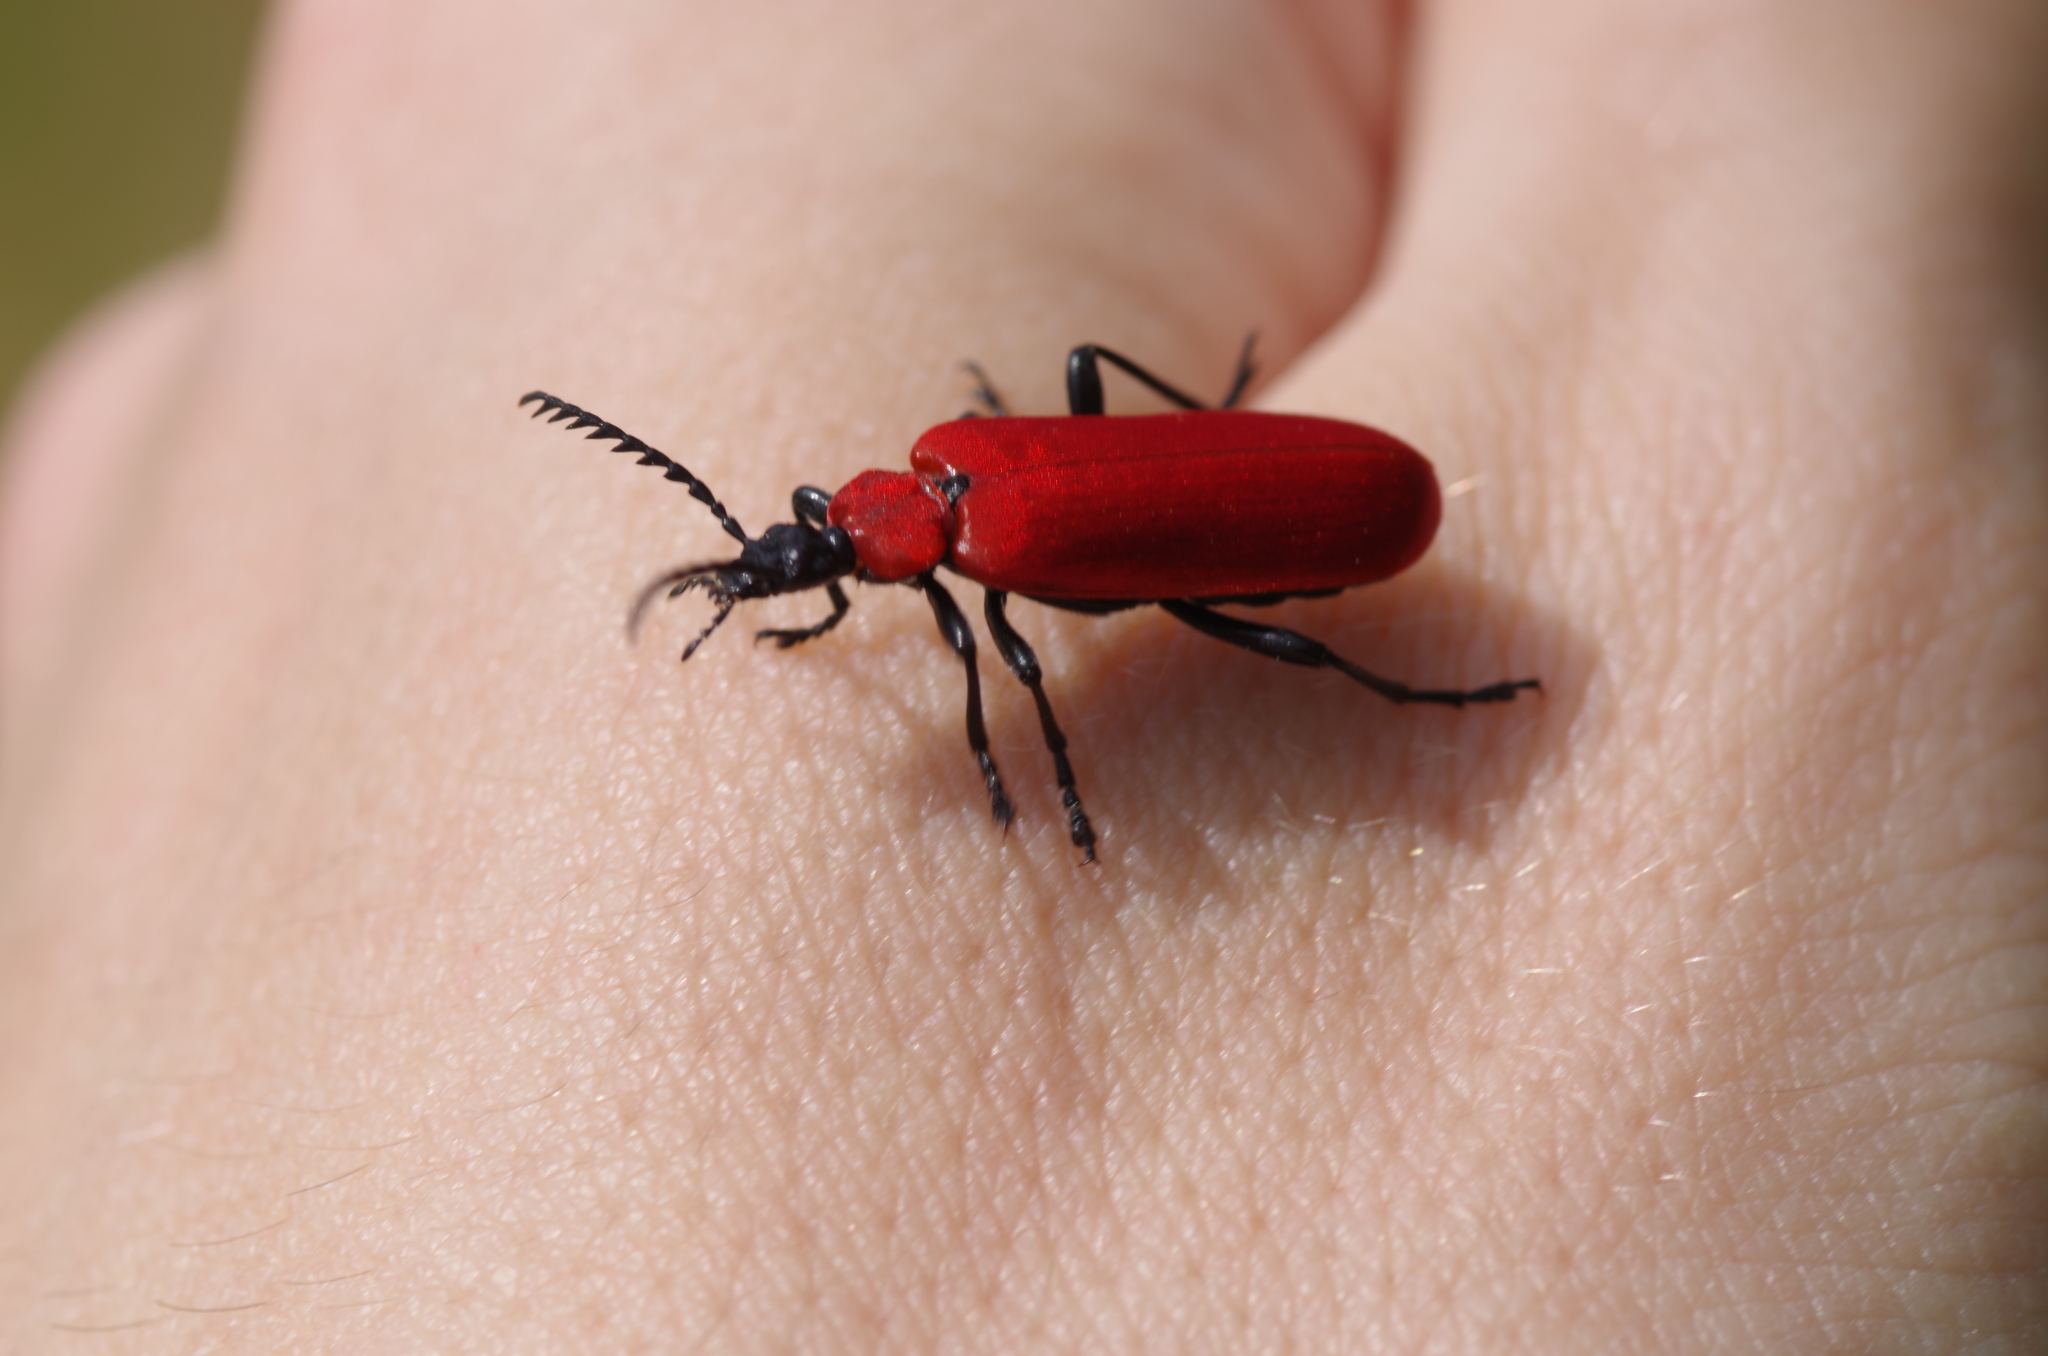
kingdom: Animalia
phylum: Arthropoda
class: Insecta
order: Coleoptera
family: Pyrochroidae
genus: Pyrochroa
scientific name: Pyrochroa coccinea
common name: Black-headed cardinal beetle
